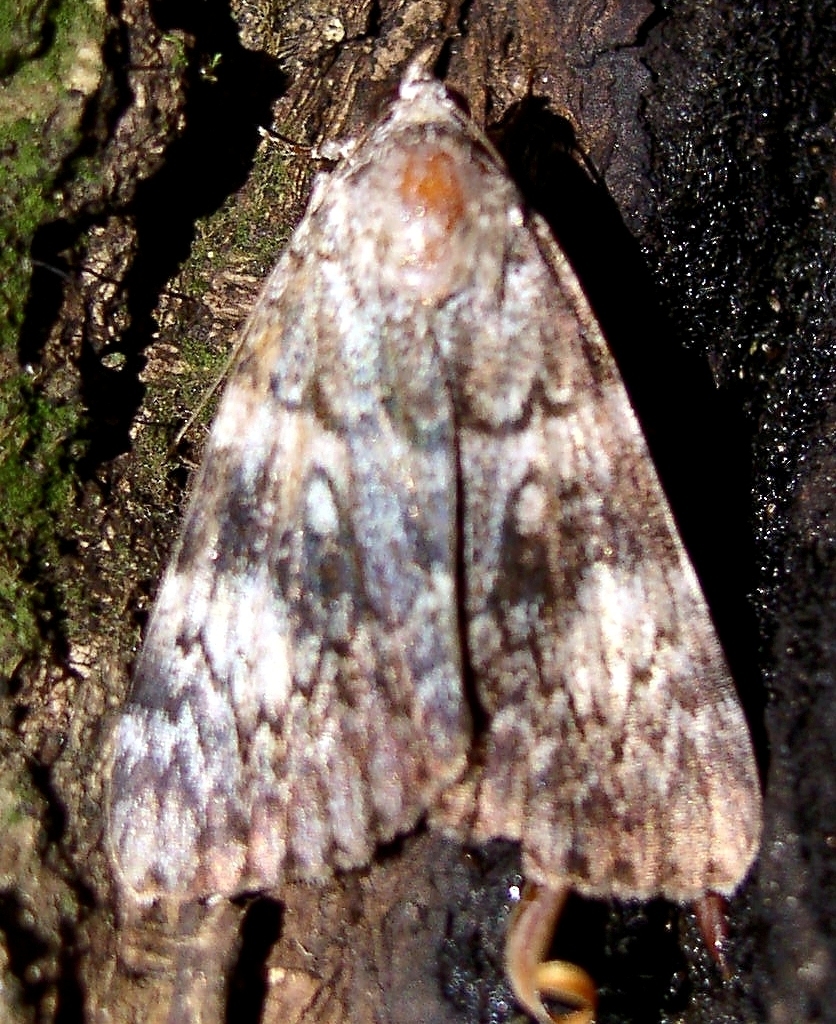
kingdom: Animalia
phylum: Arthropoda
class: Insecta
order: Lepidoptera
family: Erebidae
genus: Catocala
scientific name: Catocala lineella
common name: Little lined underwing
